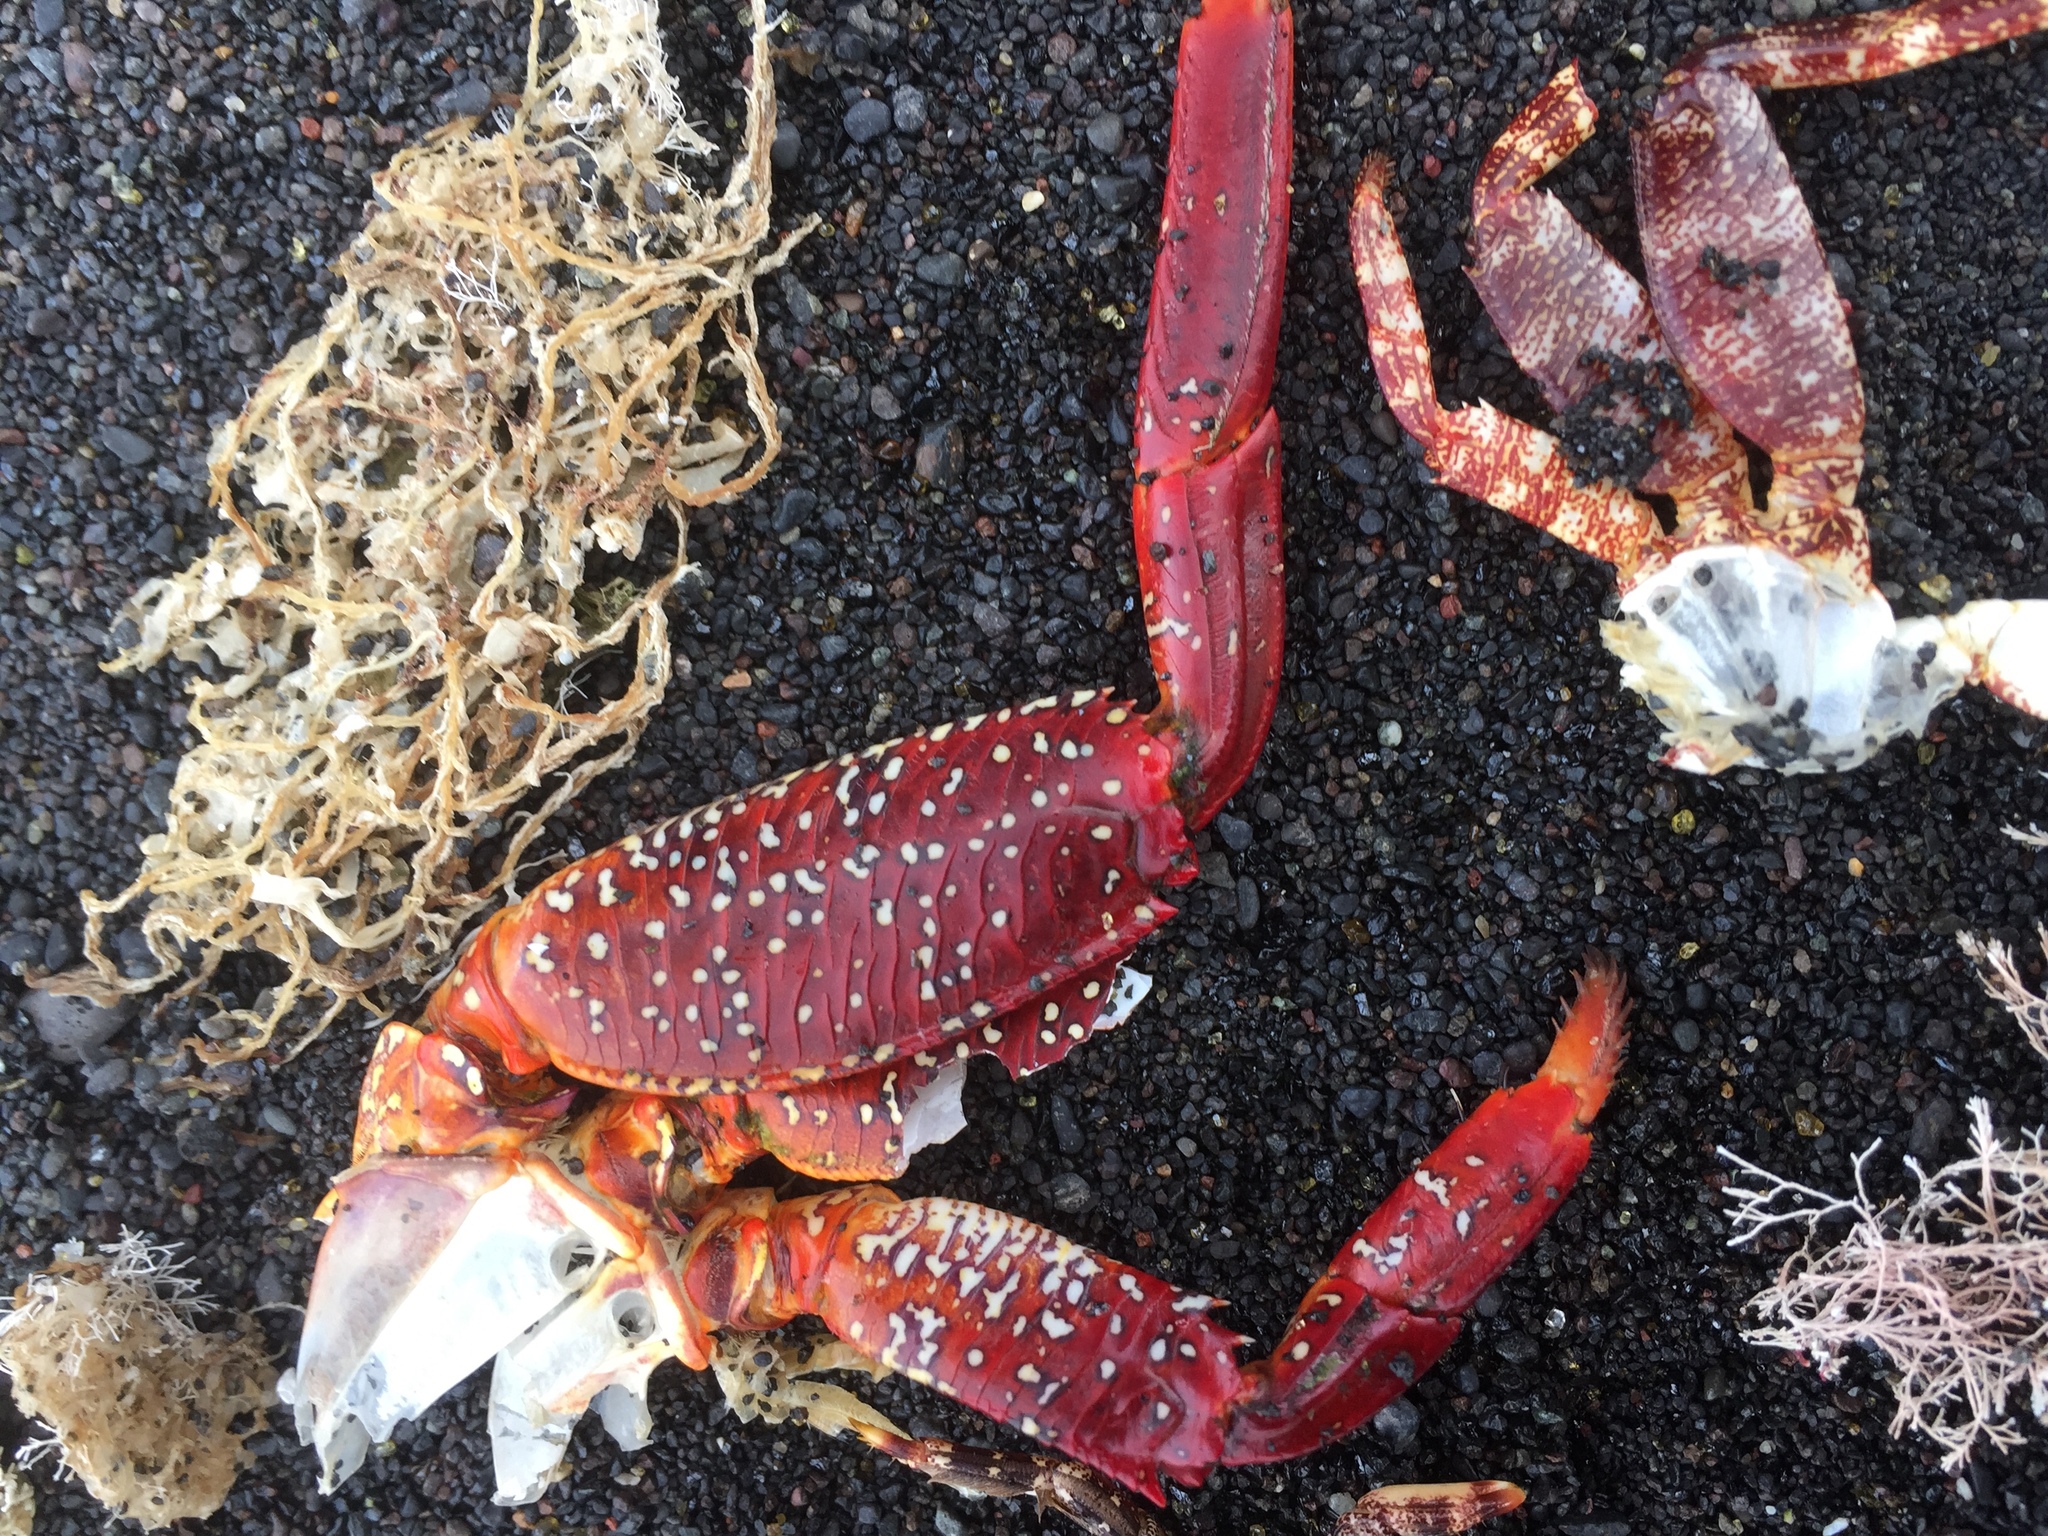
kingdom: Animalia
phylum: Arthropoda
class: Malacostraca
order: Decapoda
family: Grapsidae
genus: Grapsus
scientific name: Grapsus adscensionis
